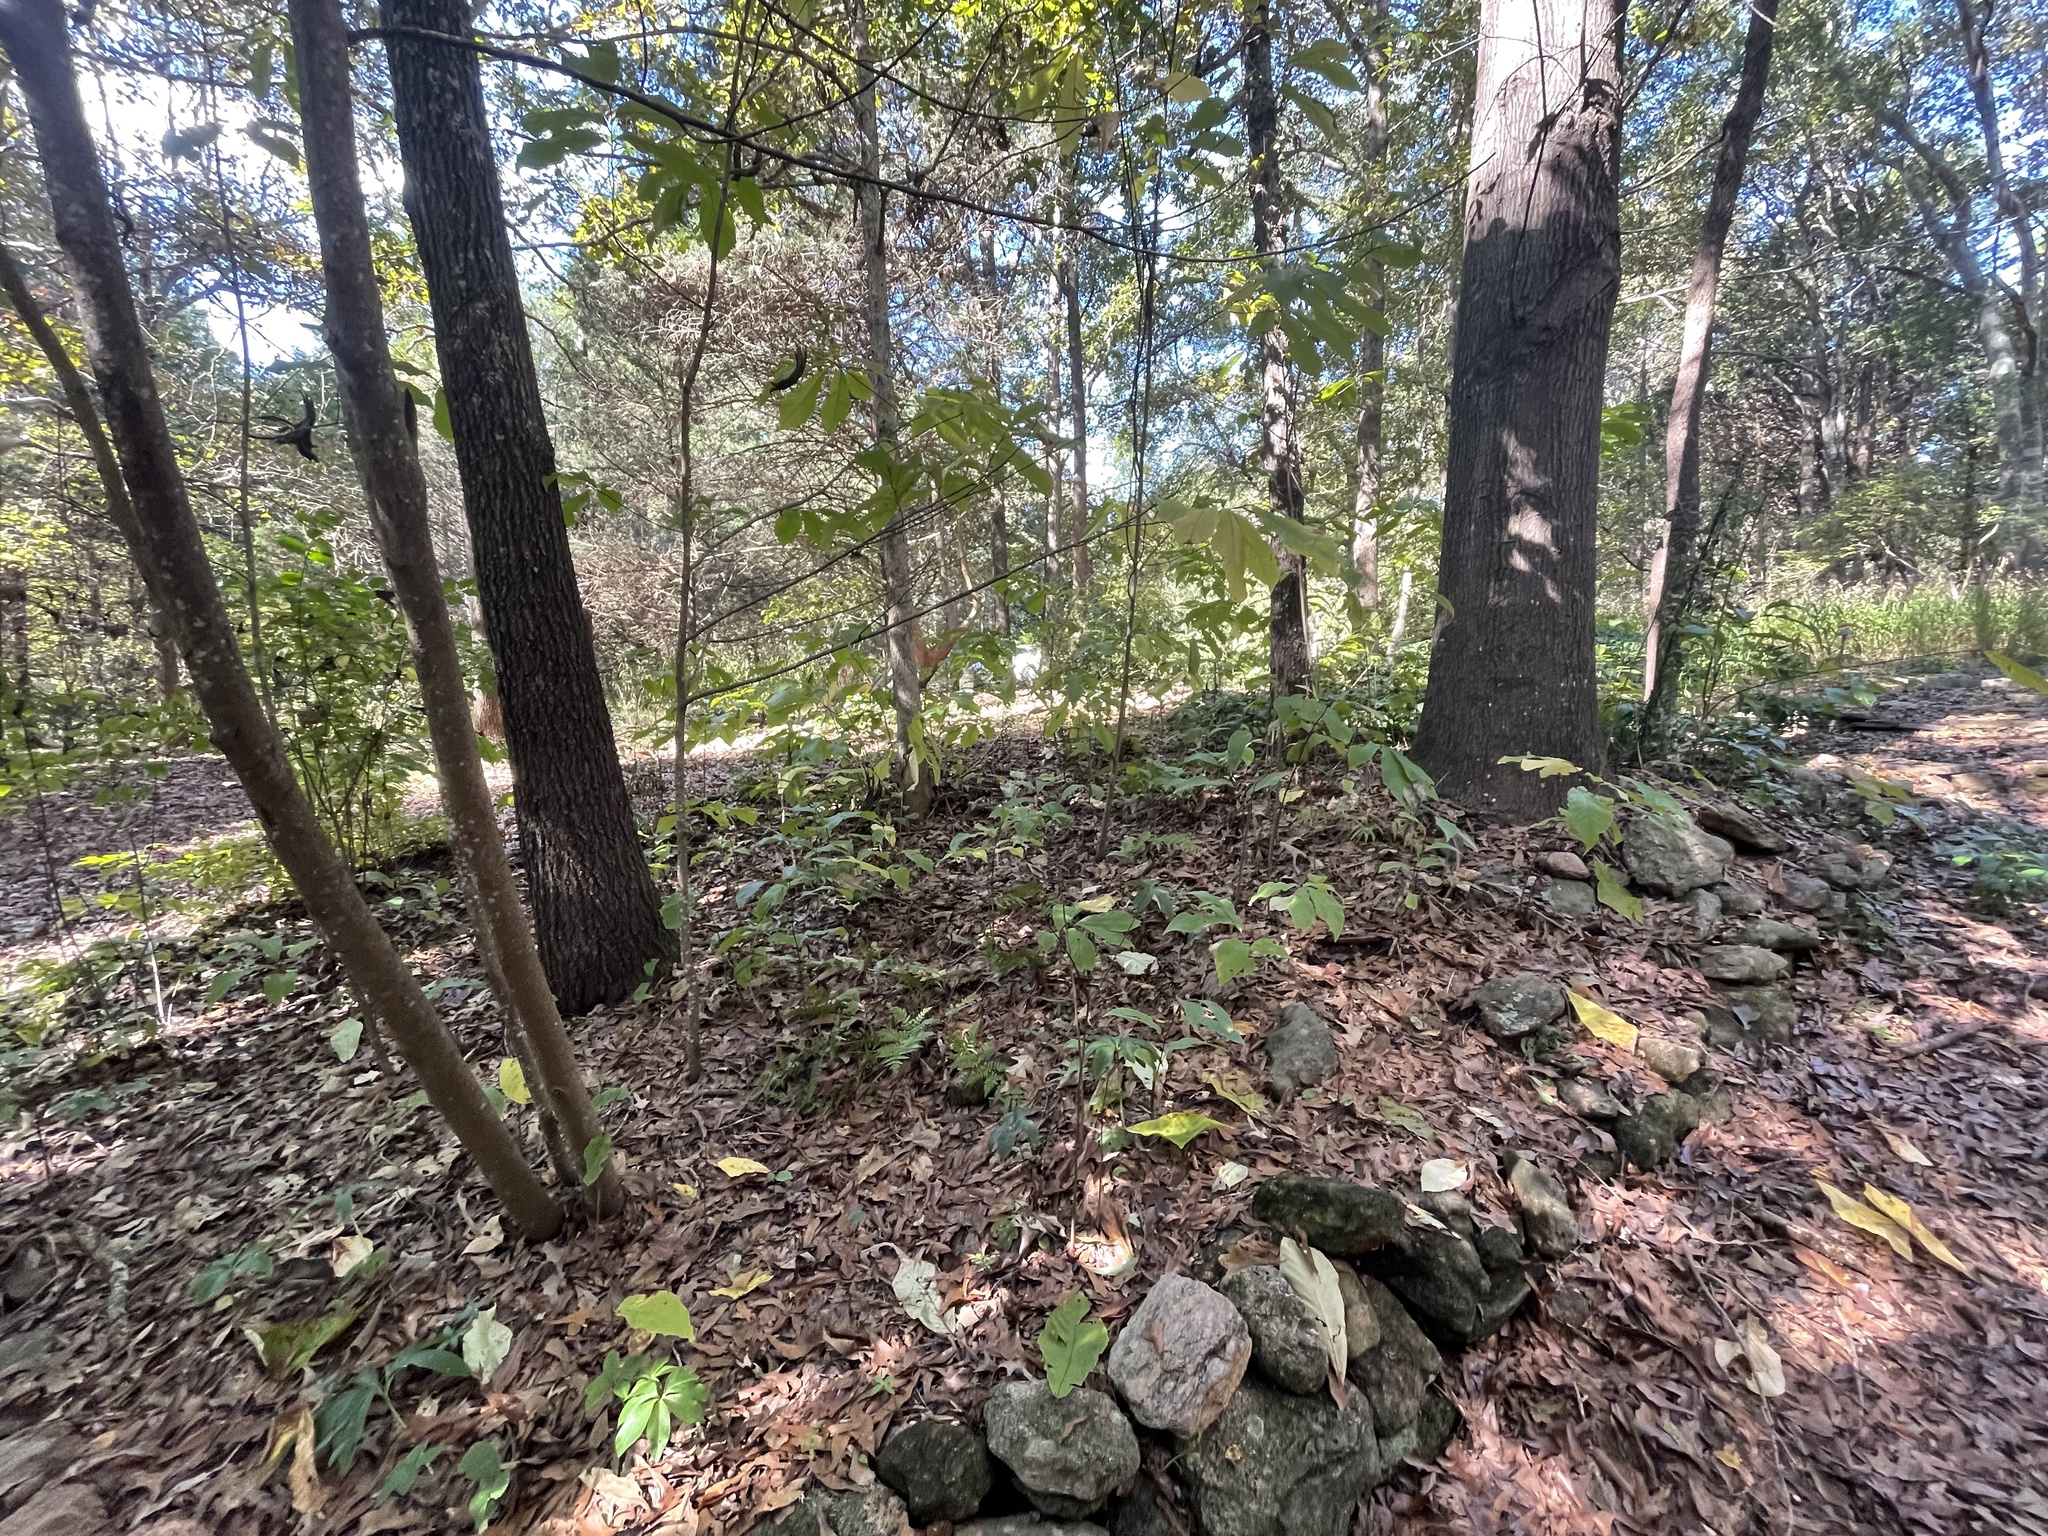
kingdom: Fungi
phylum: Ascomycota
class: Sordariomycetes
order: Hypocreales
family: Hypocreaceae
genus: Hypomyces
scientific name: Hypomyces hyalinus
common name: Amanita mold
